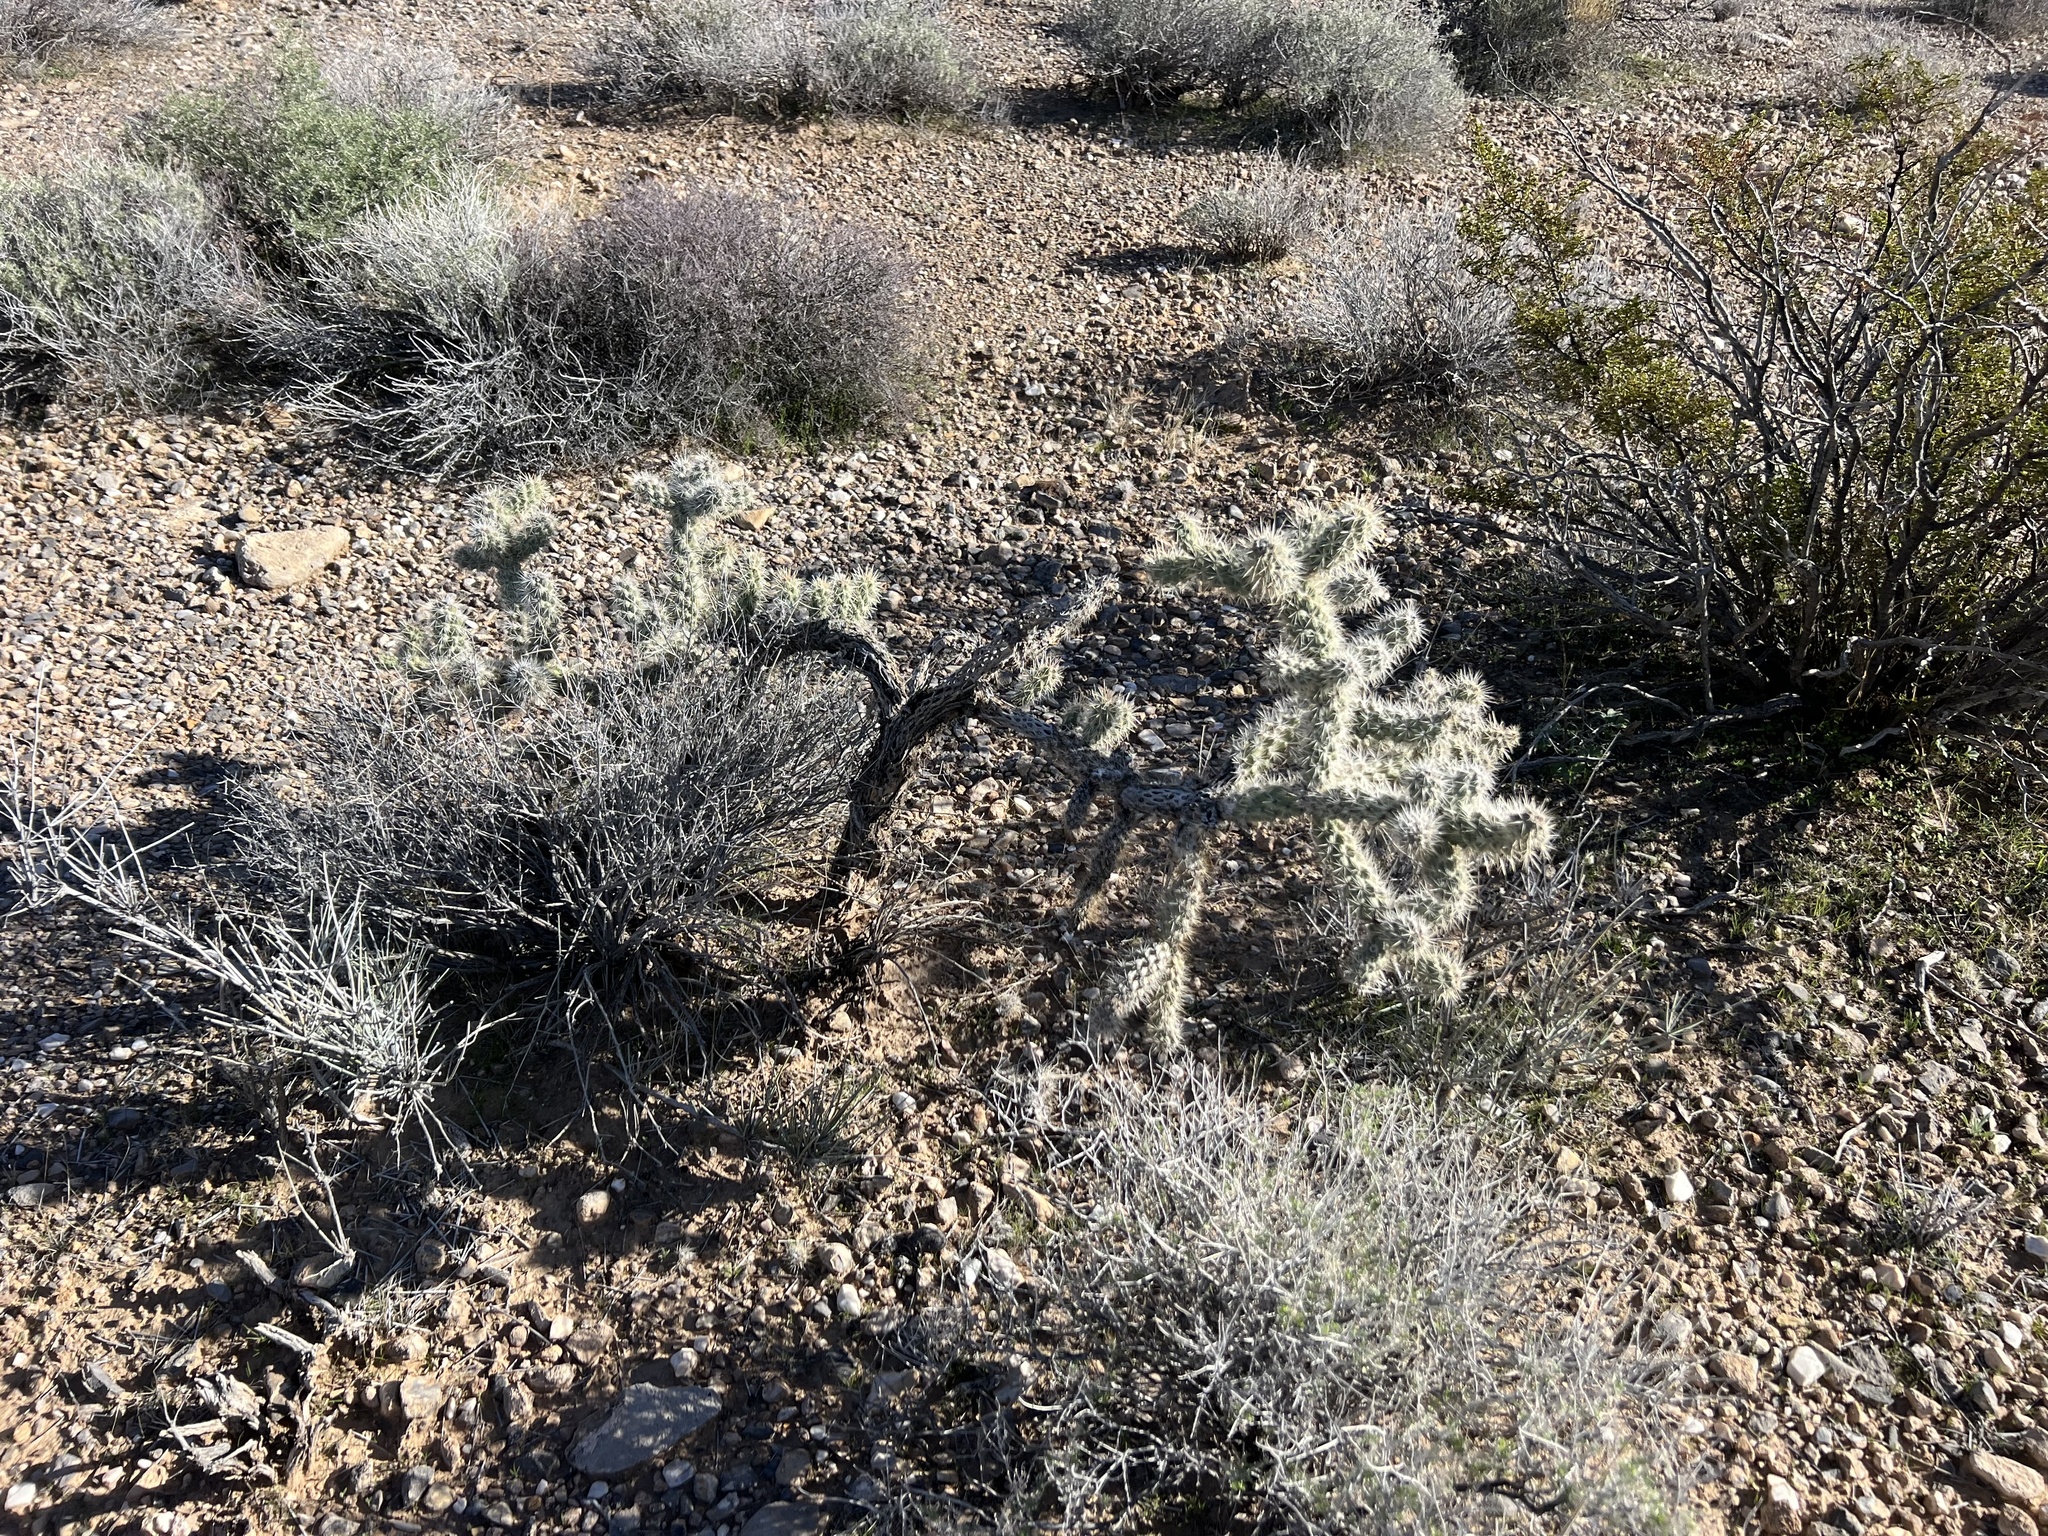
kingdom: Plantae
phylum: Tracheophyta
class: Magnoliopsida
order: Caryophyllales
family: Cactaceae
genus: Cylindropuntia
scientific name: Cylindropuntia echinocarpa
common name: Ground cholla
